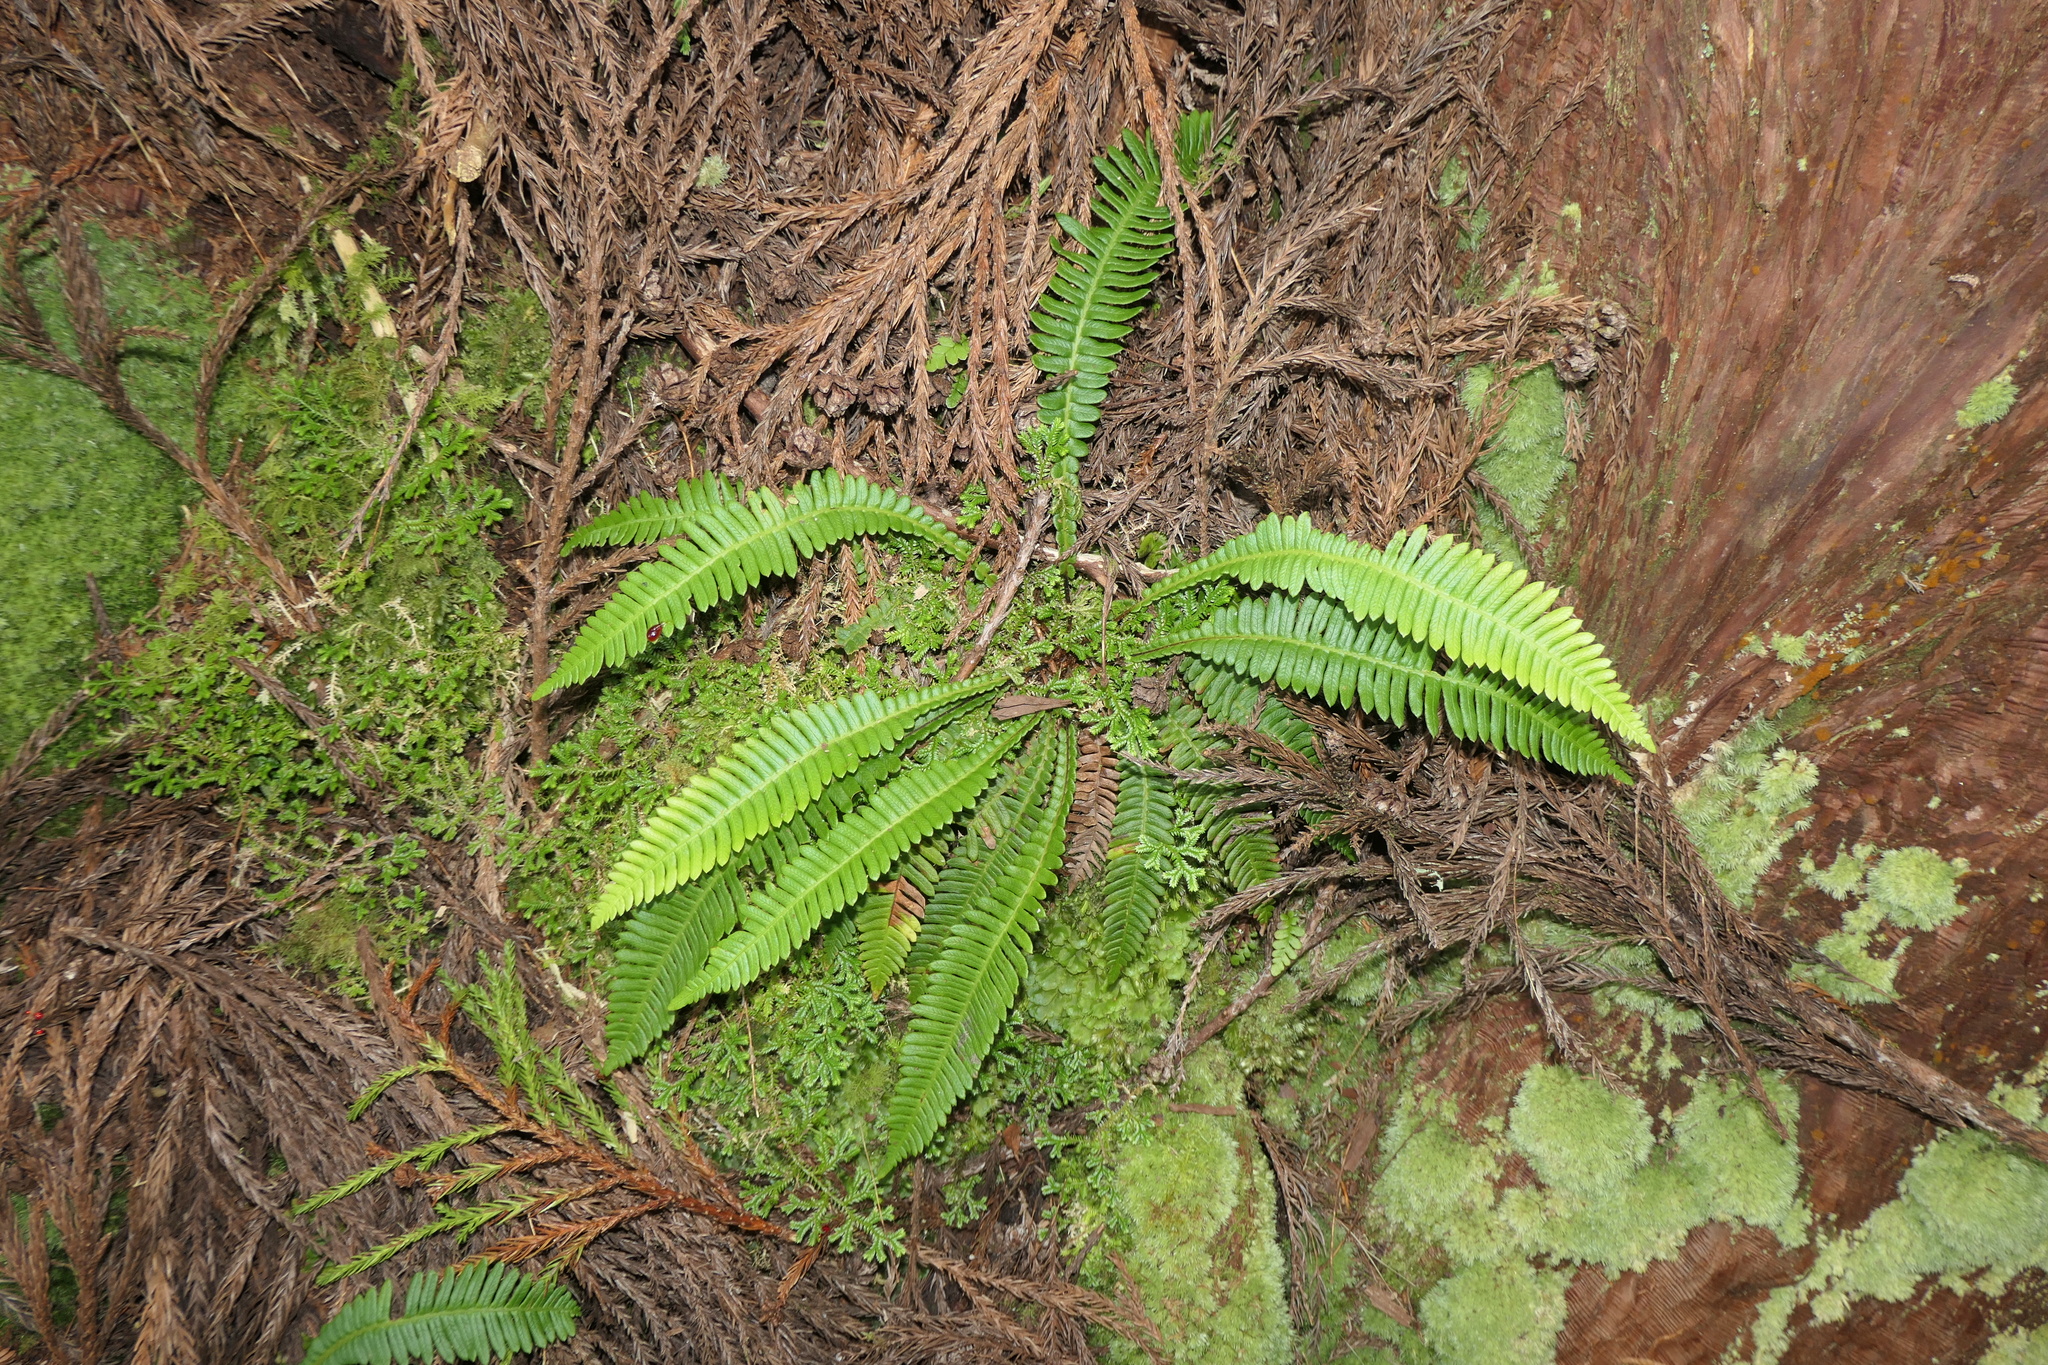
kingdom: Plantae
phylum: Tracheophyta
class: Polypodiopsida
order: Polypodiales
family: Blechnaceae
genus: Struthiopteris
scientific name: Struthiopteris spicant
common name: Deer fern
